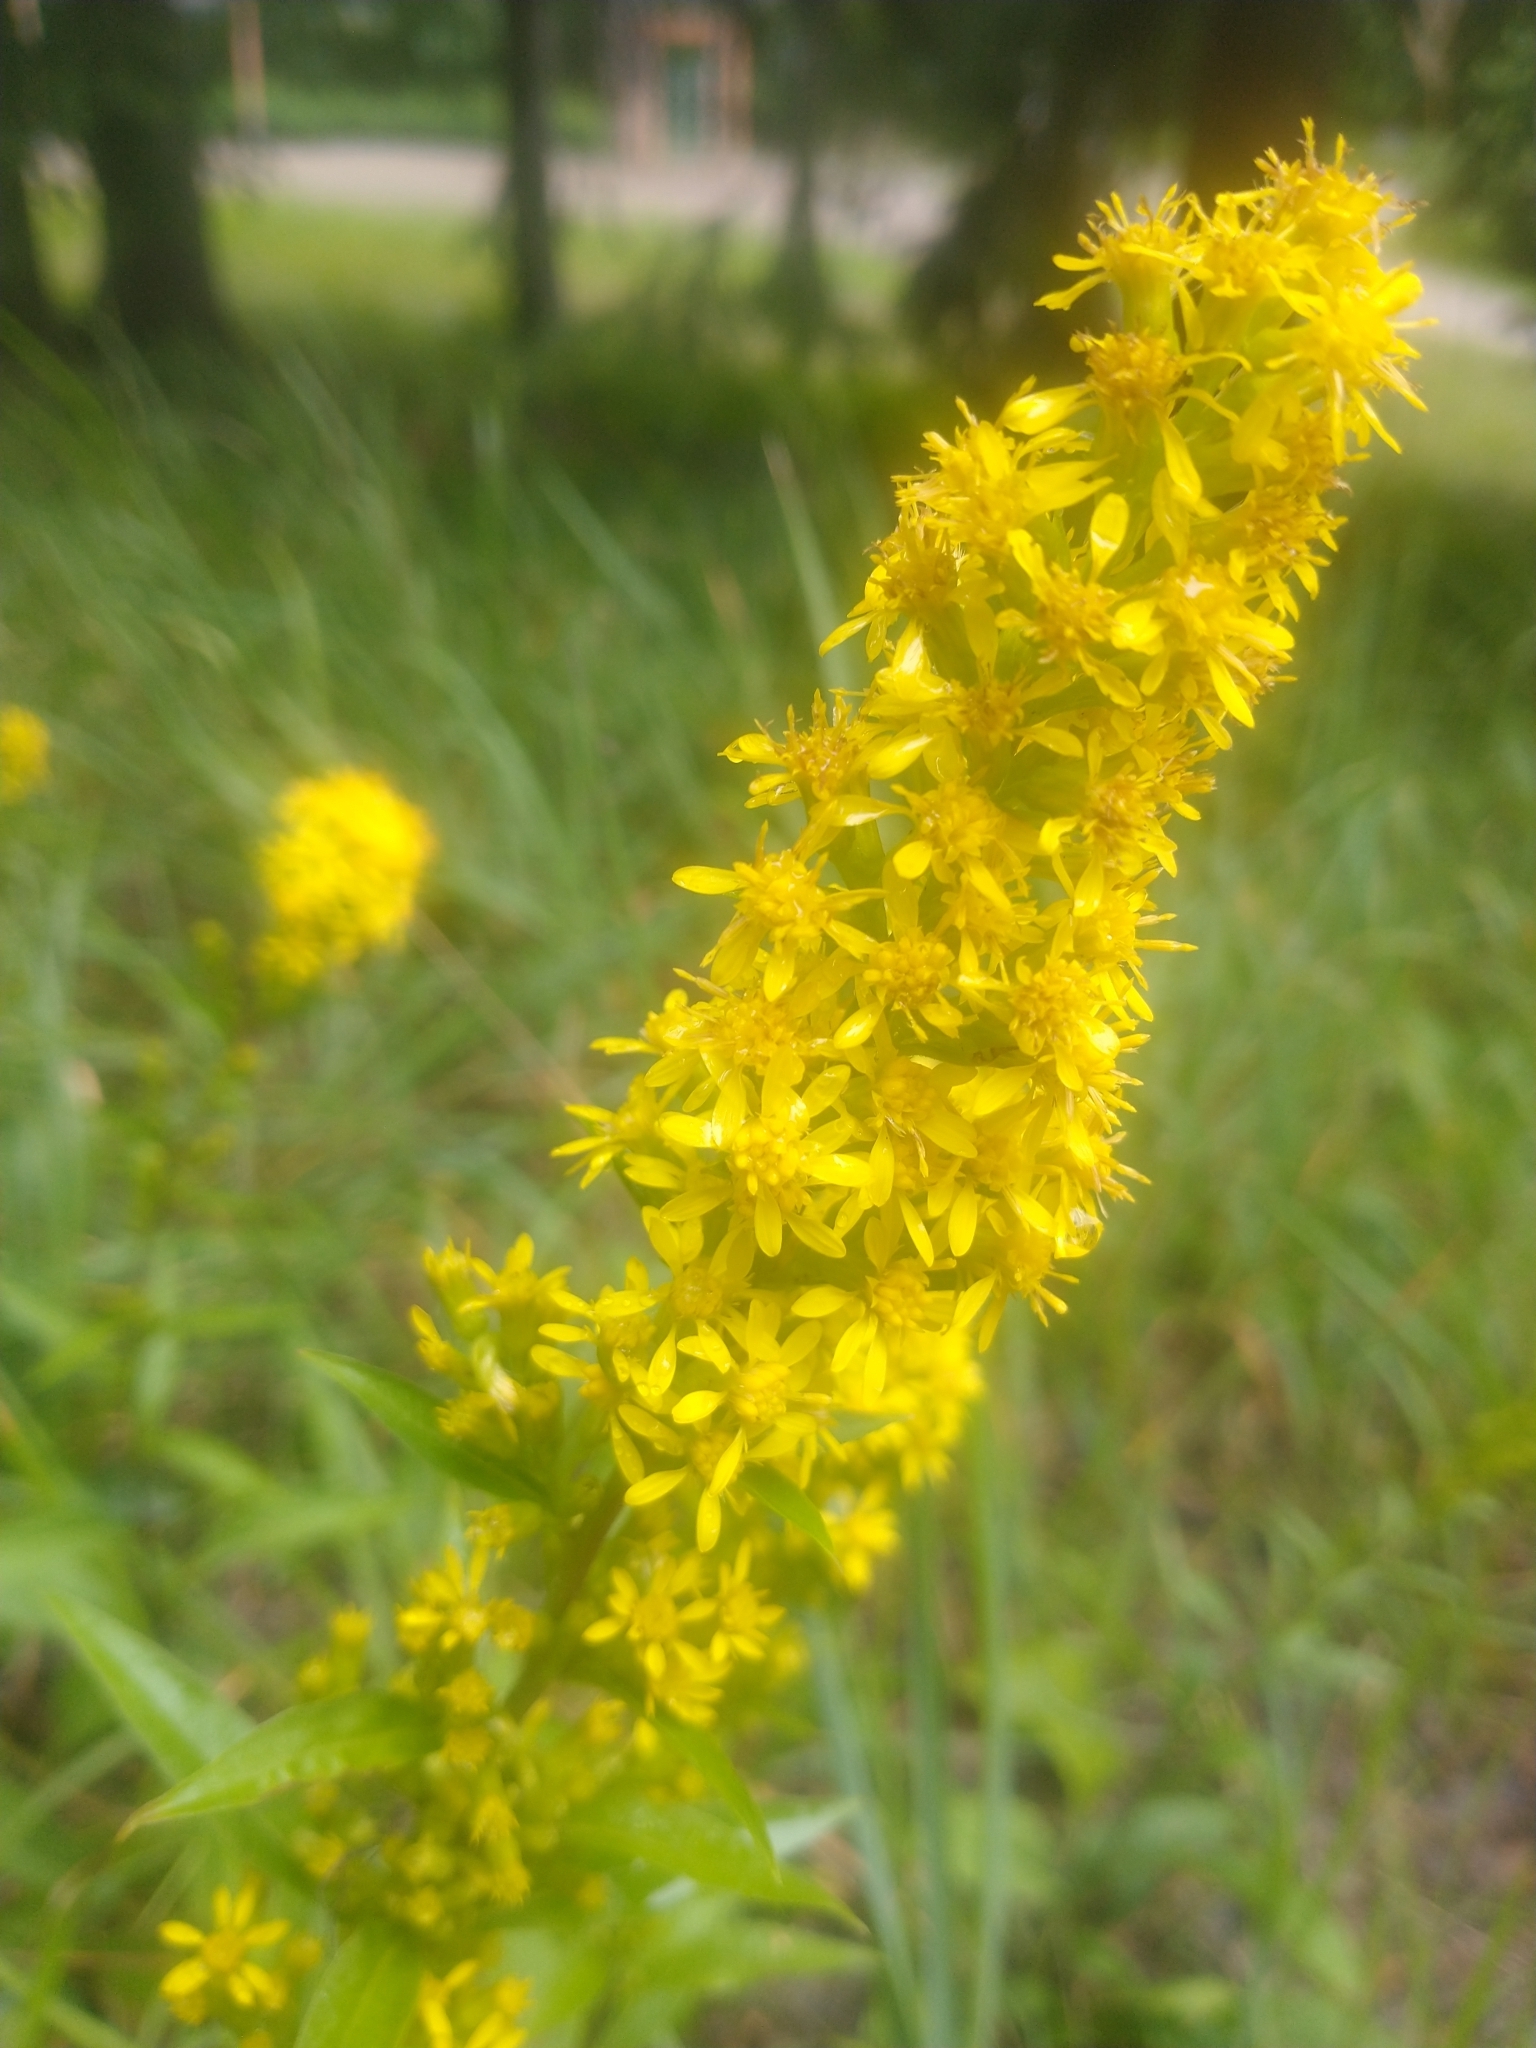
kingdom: Plantae
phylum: Tracheophyta
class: Magnoliopsida
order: Asterales
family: Asteraceae
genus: Solidago
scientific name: Solidago virgaurea
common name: Goldenrod
